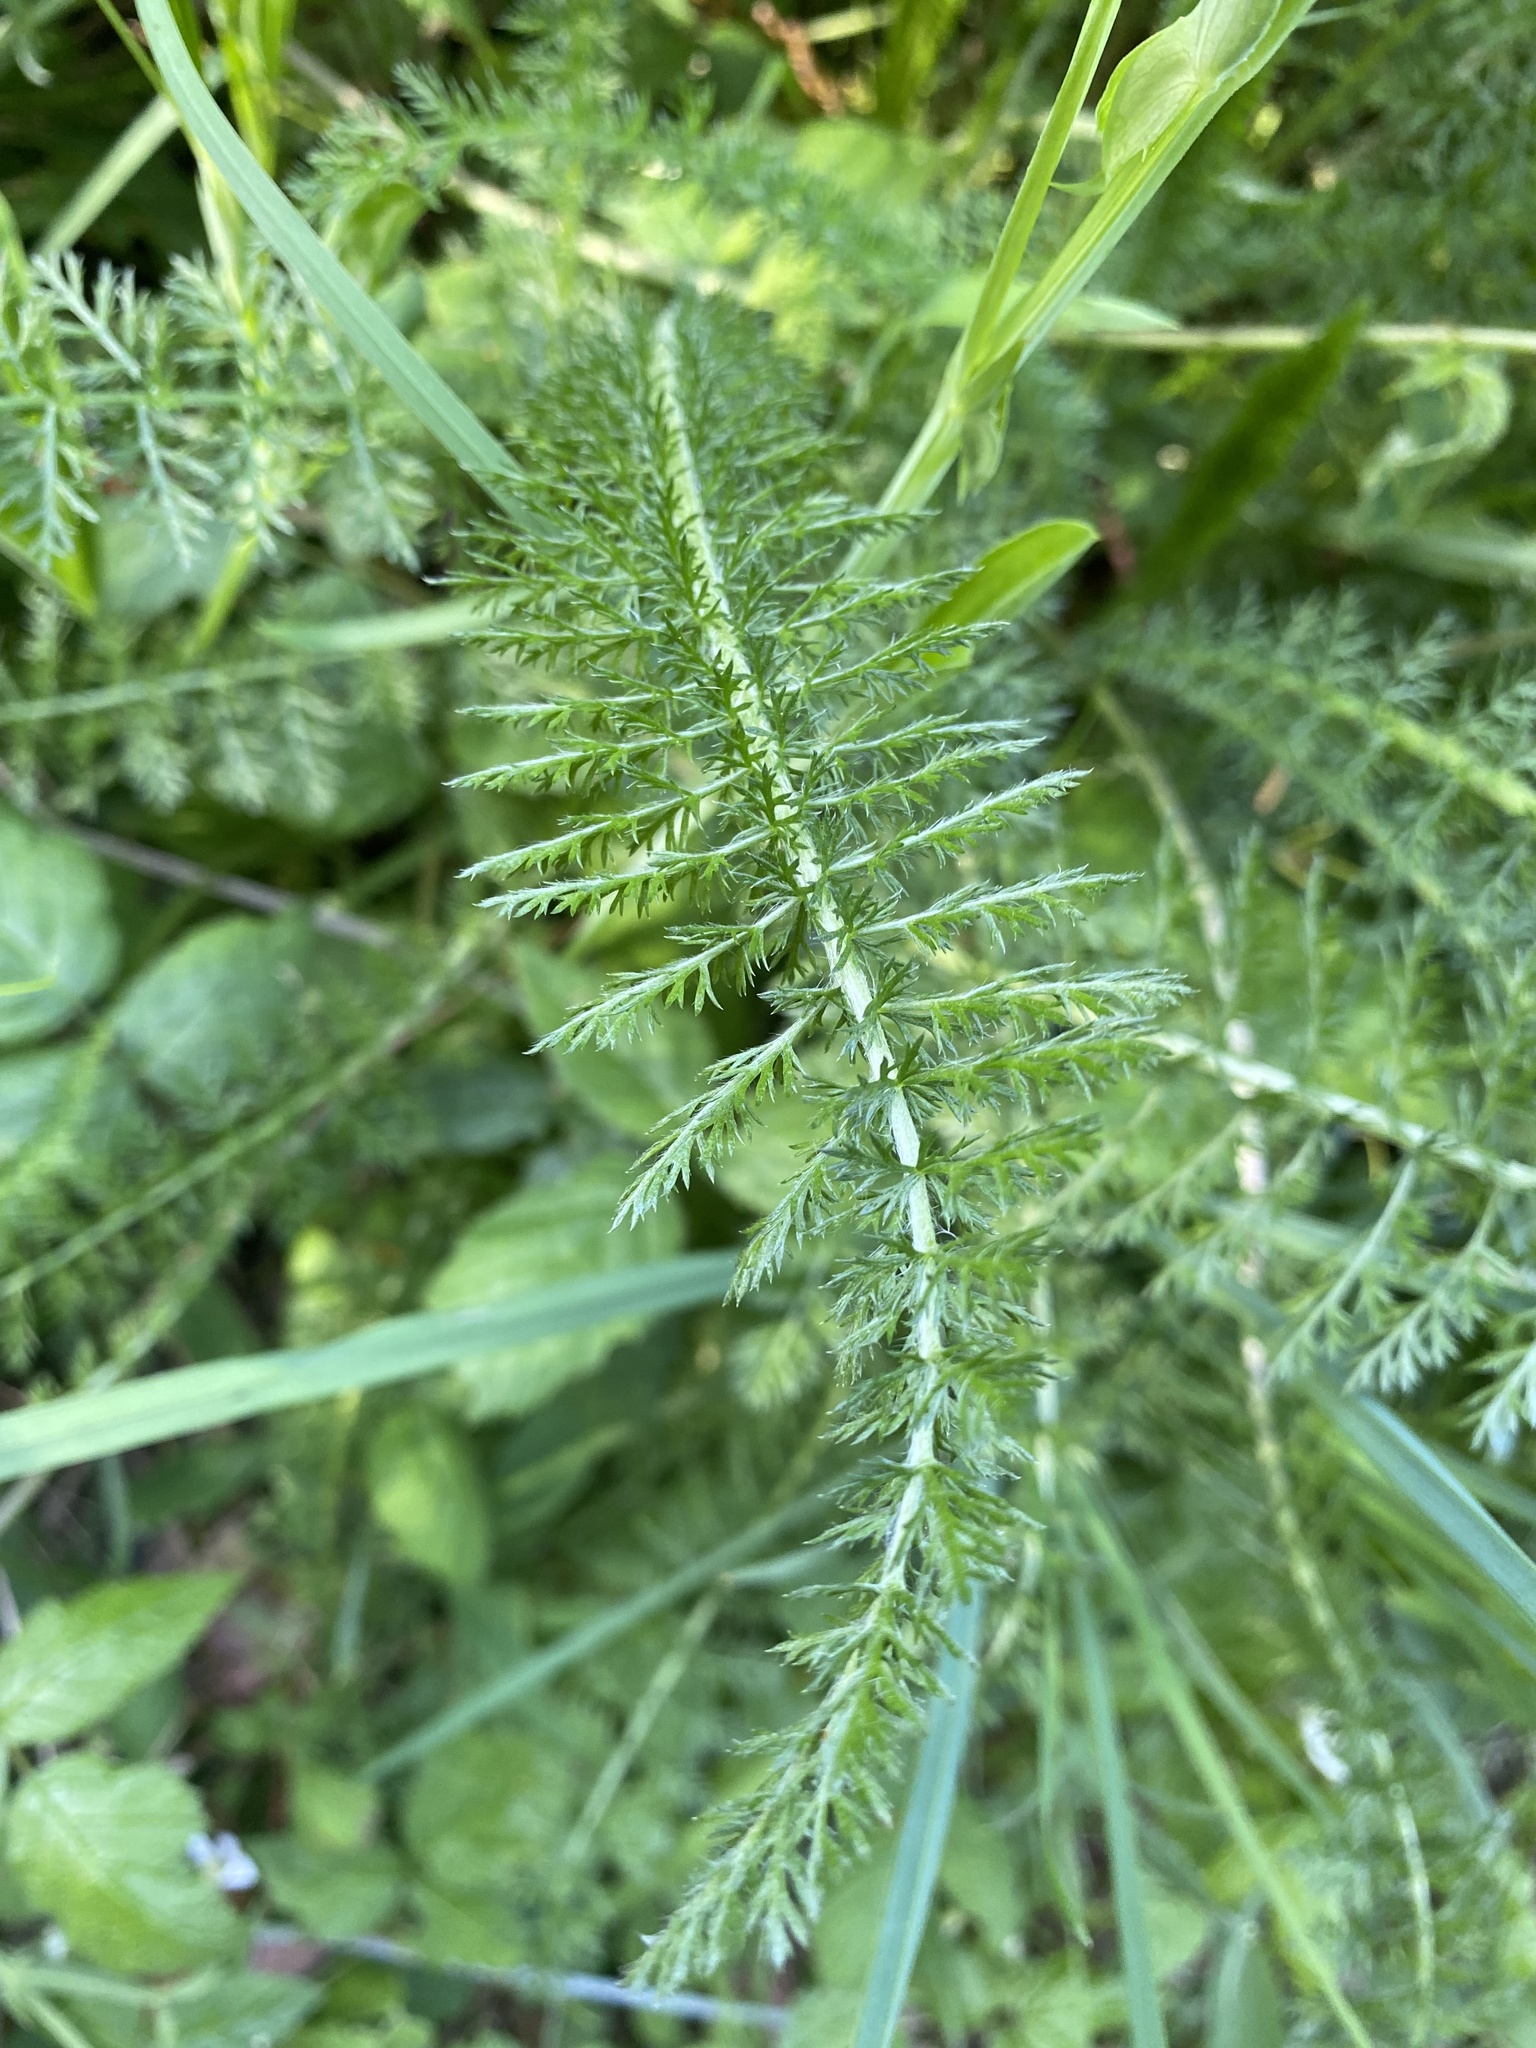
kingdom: Plantae
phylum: Tracheophyta
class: Magnoliopsida
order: Asterales
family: Asteraceae
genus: Achillea
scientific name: Achillea millefolium
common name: Yarrow
